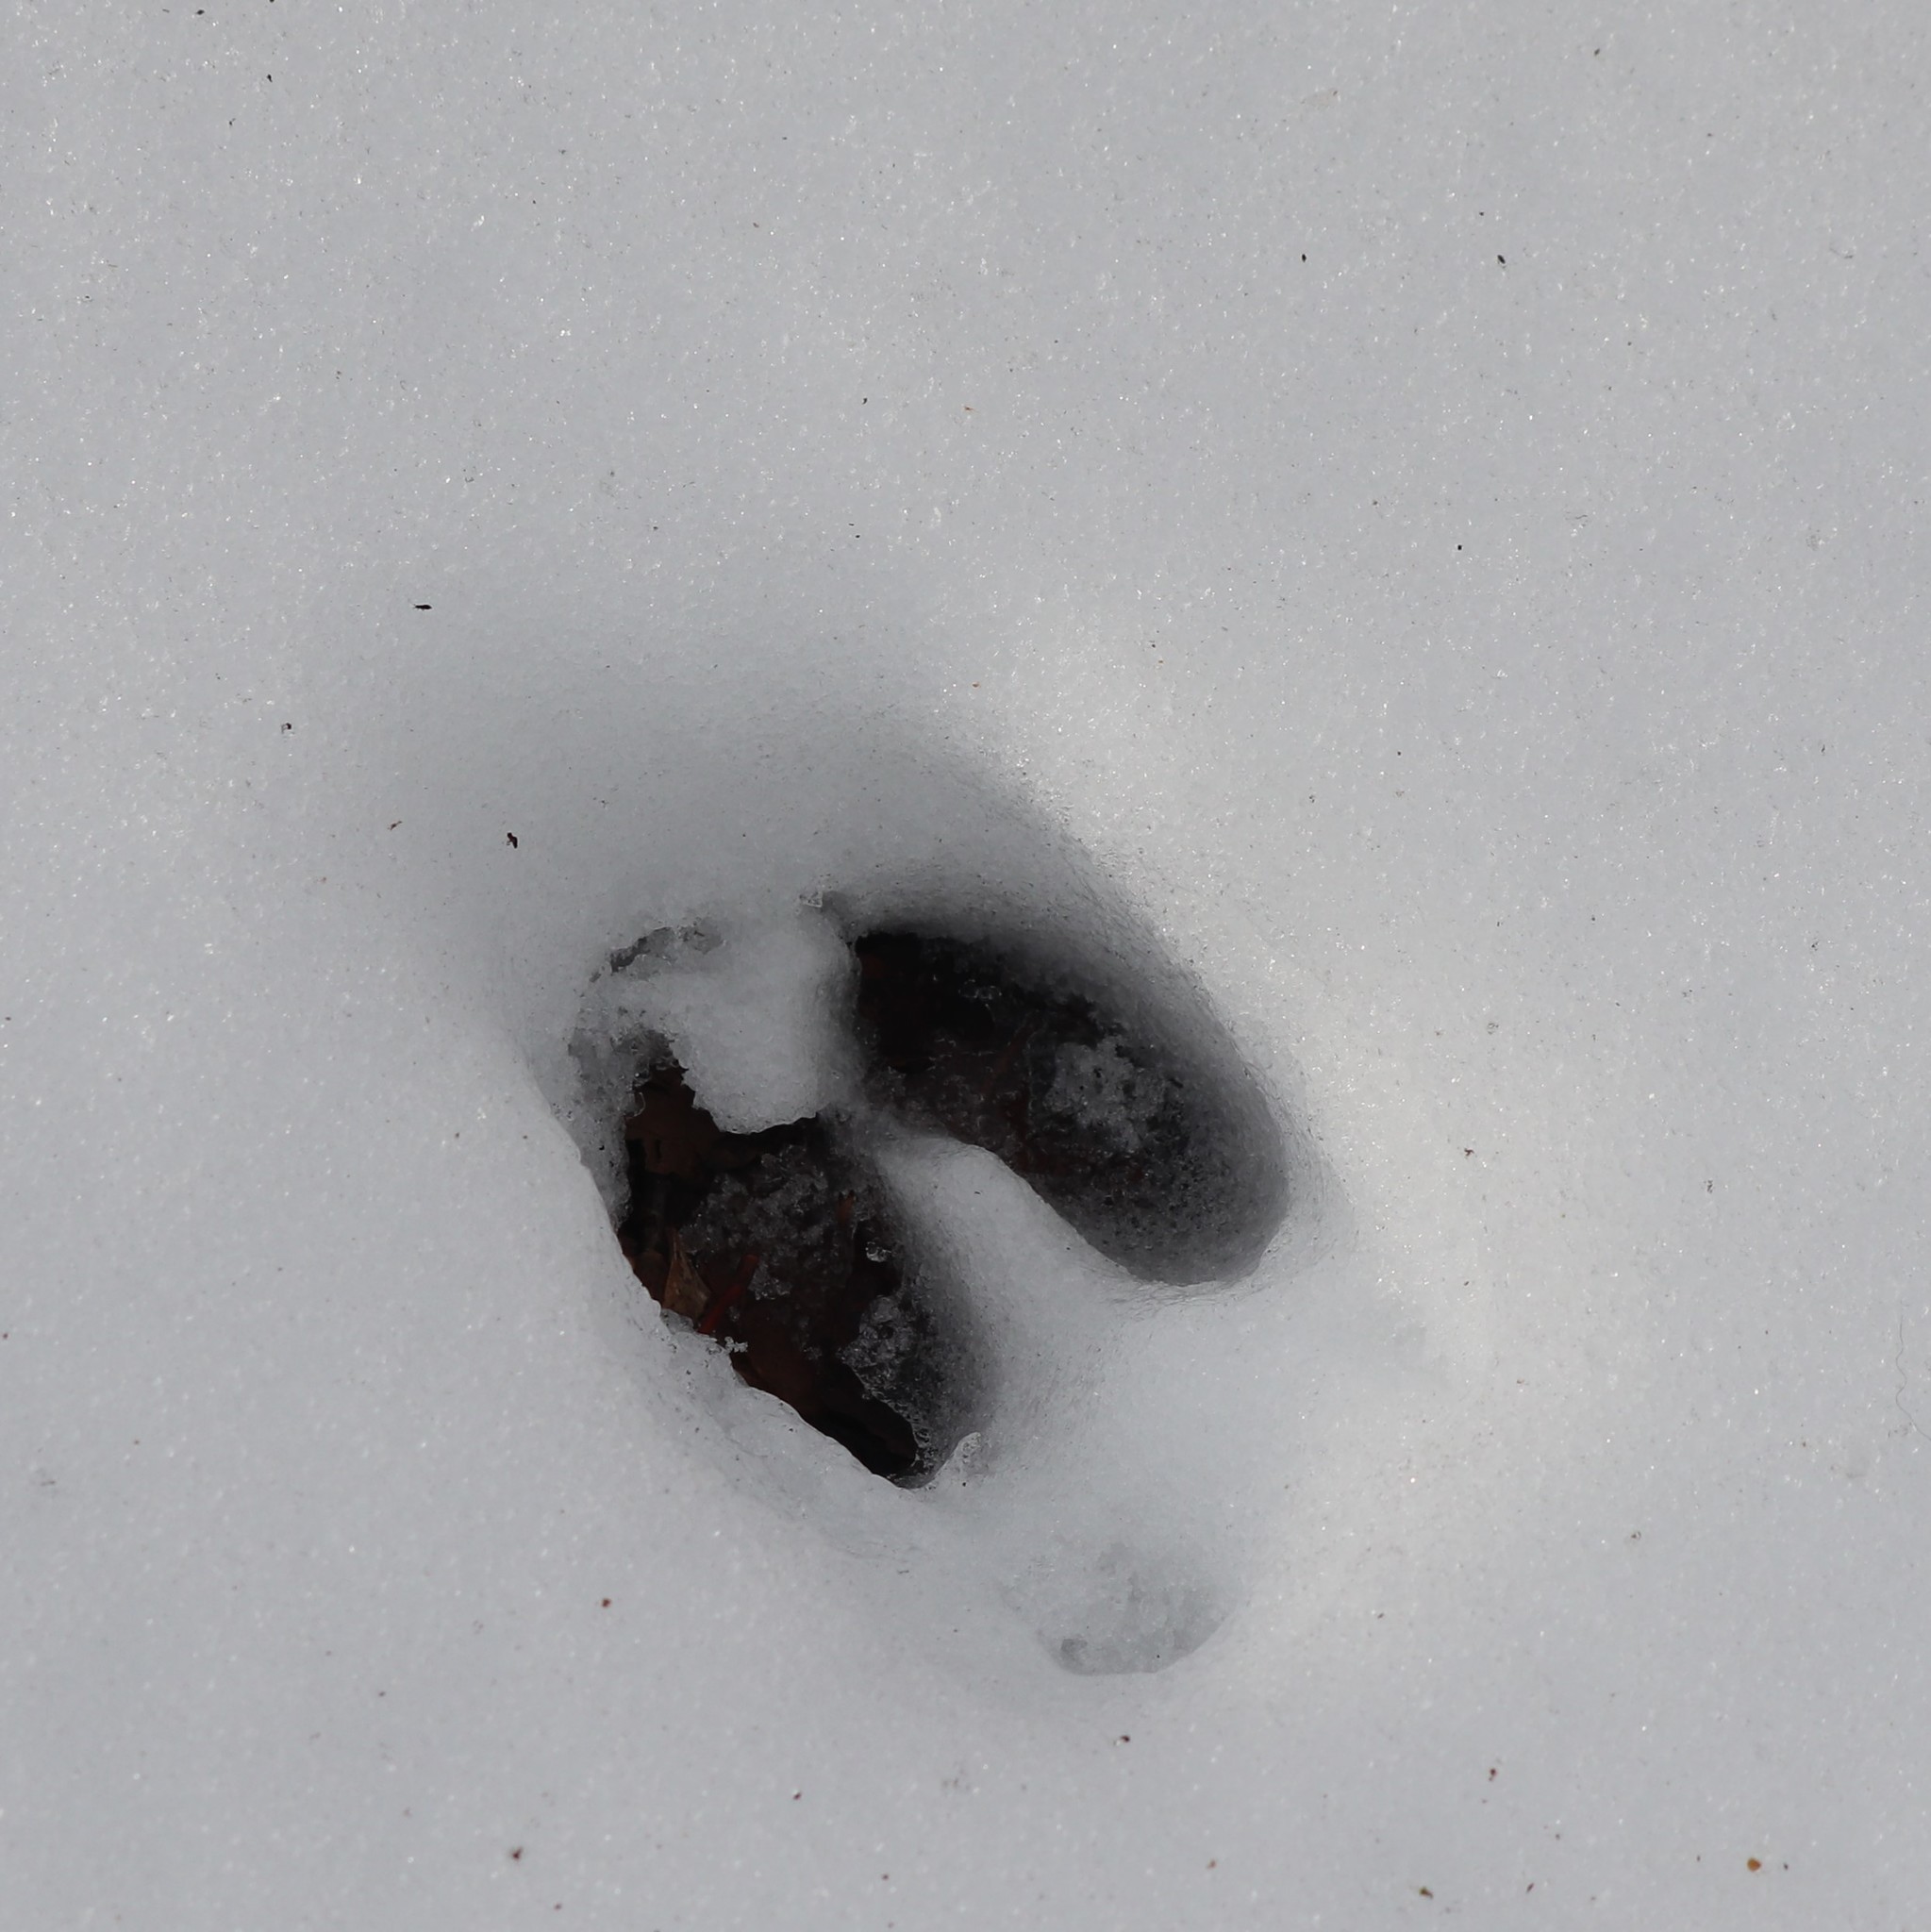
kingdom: Animalia
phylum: Chordata
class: Mammalia
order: Artiodactyla
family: Cervidae
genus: Odocoileus
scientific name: Odocoileus virginianus
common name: White-tailed deer
